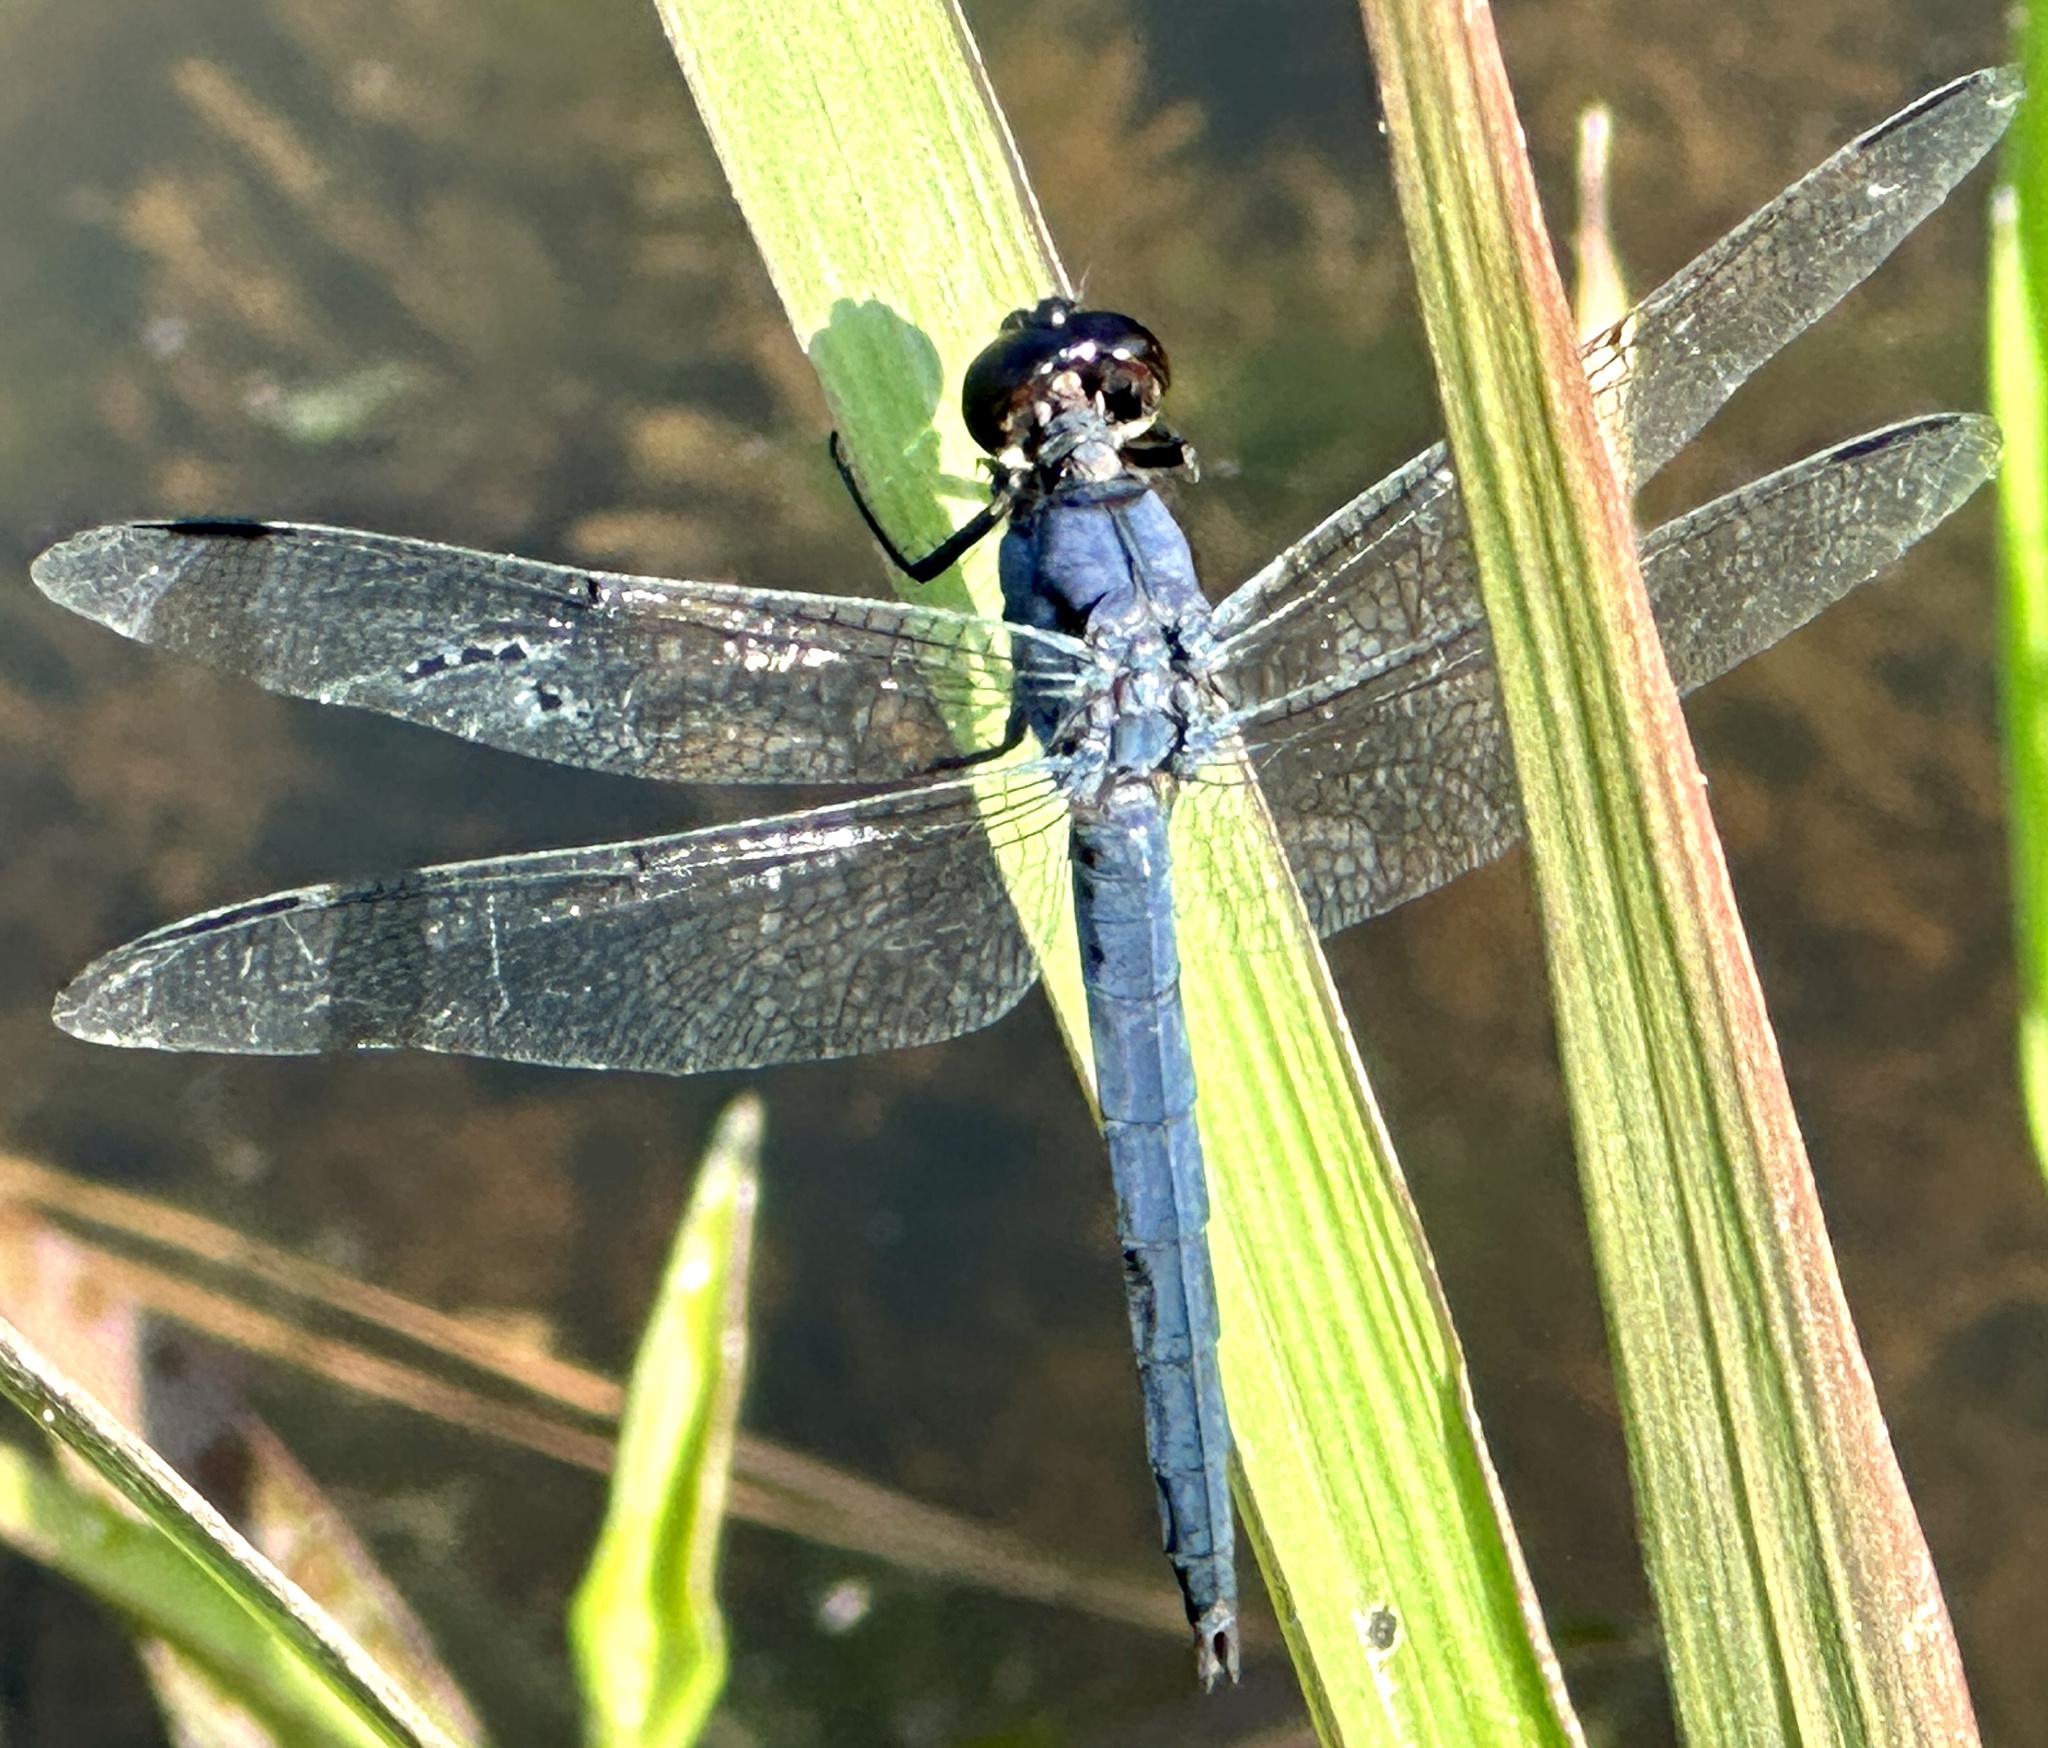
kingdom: Animalia
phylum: Arthropoda
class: Insecta
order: Odonata
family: Libellulidae
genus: Libellula
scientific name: Libellula incesta
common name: Slaty skimmer
